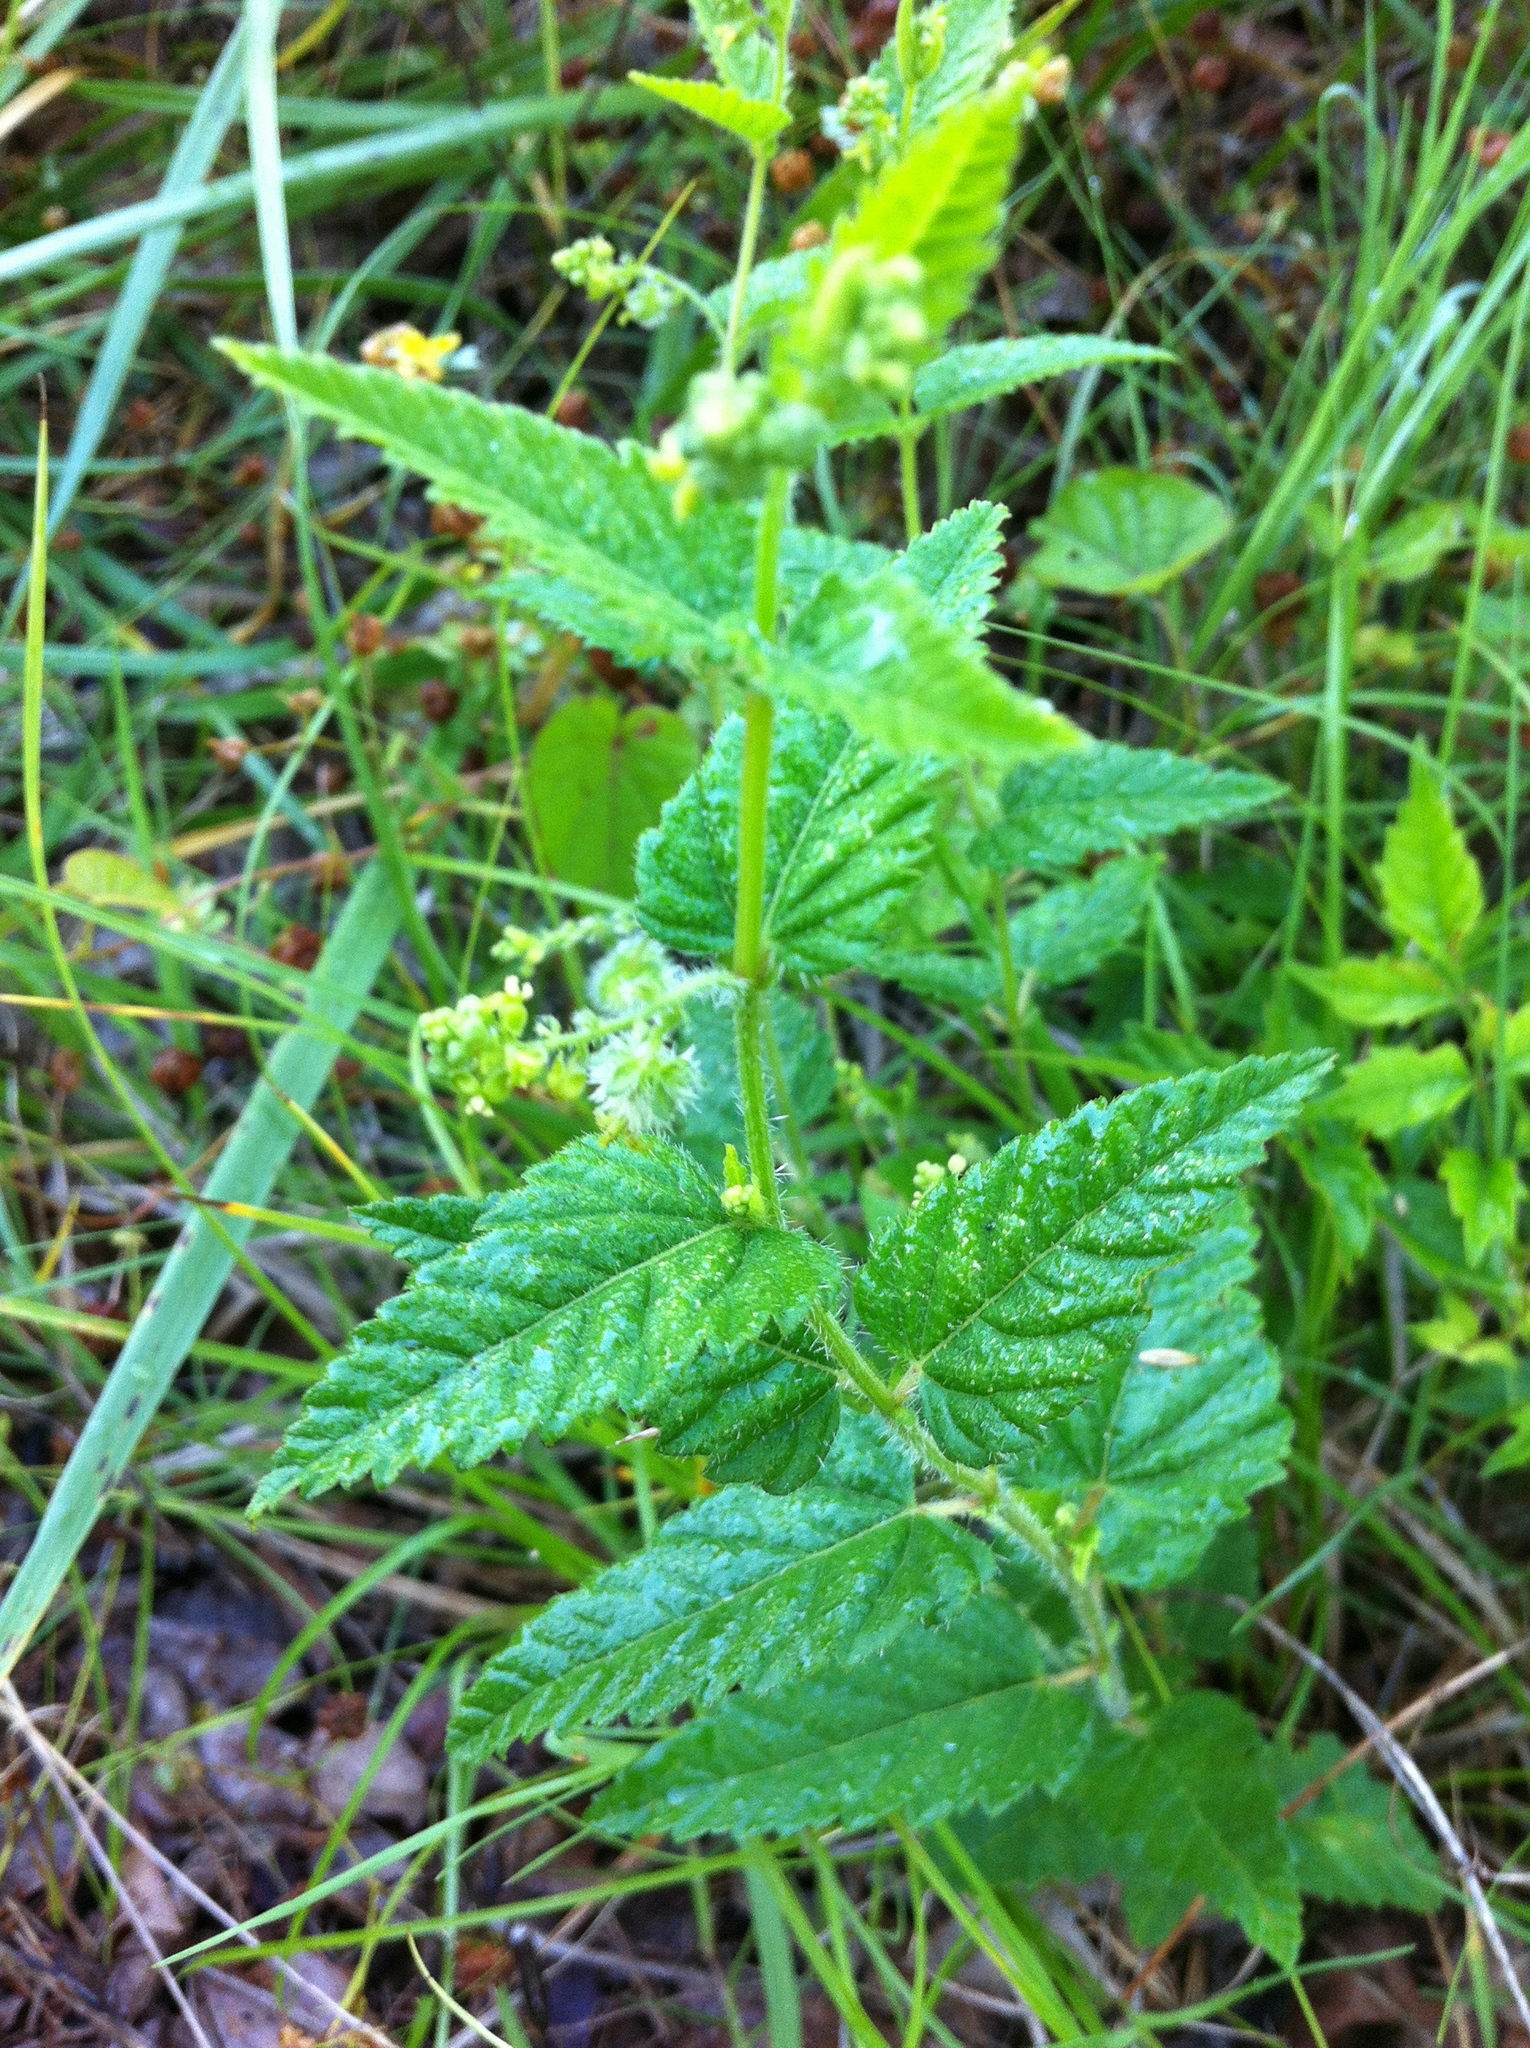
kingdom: Plantae
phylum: Tracheophyta
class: Magnoliopsida
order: Rosales
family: Urticaceae
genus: Urtica
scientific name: Urtica dioica
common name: Common nettle
